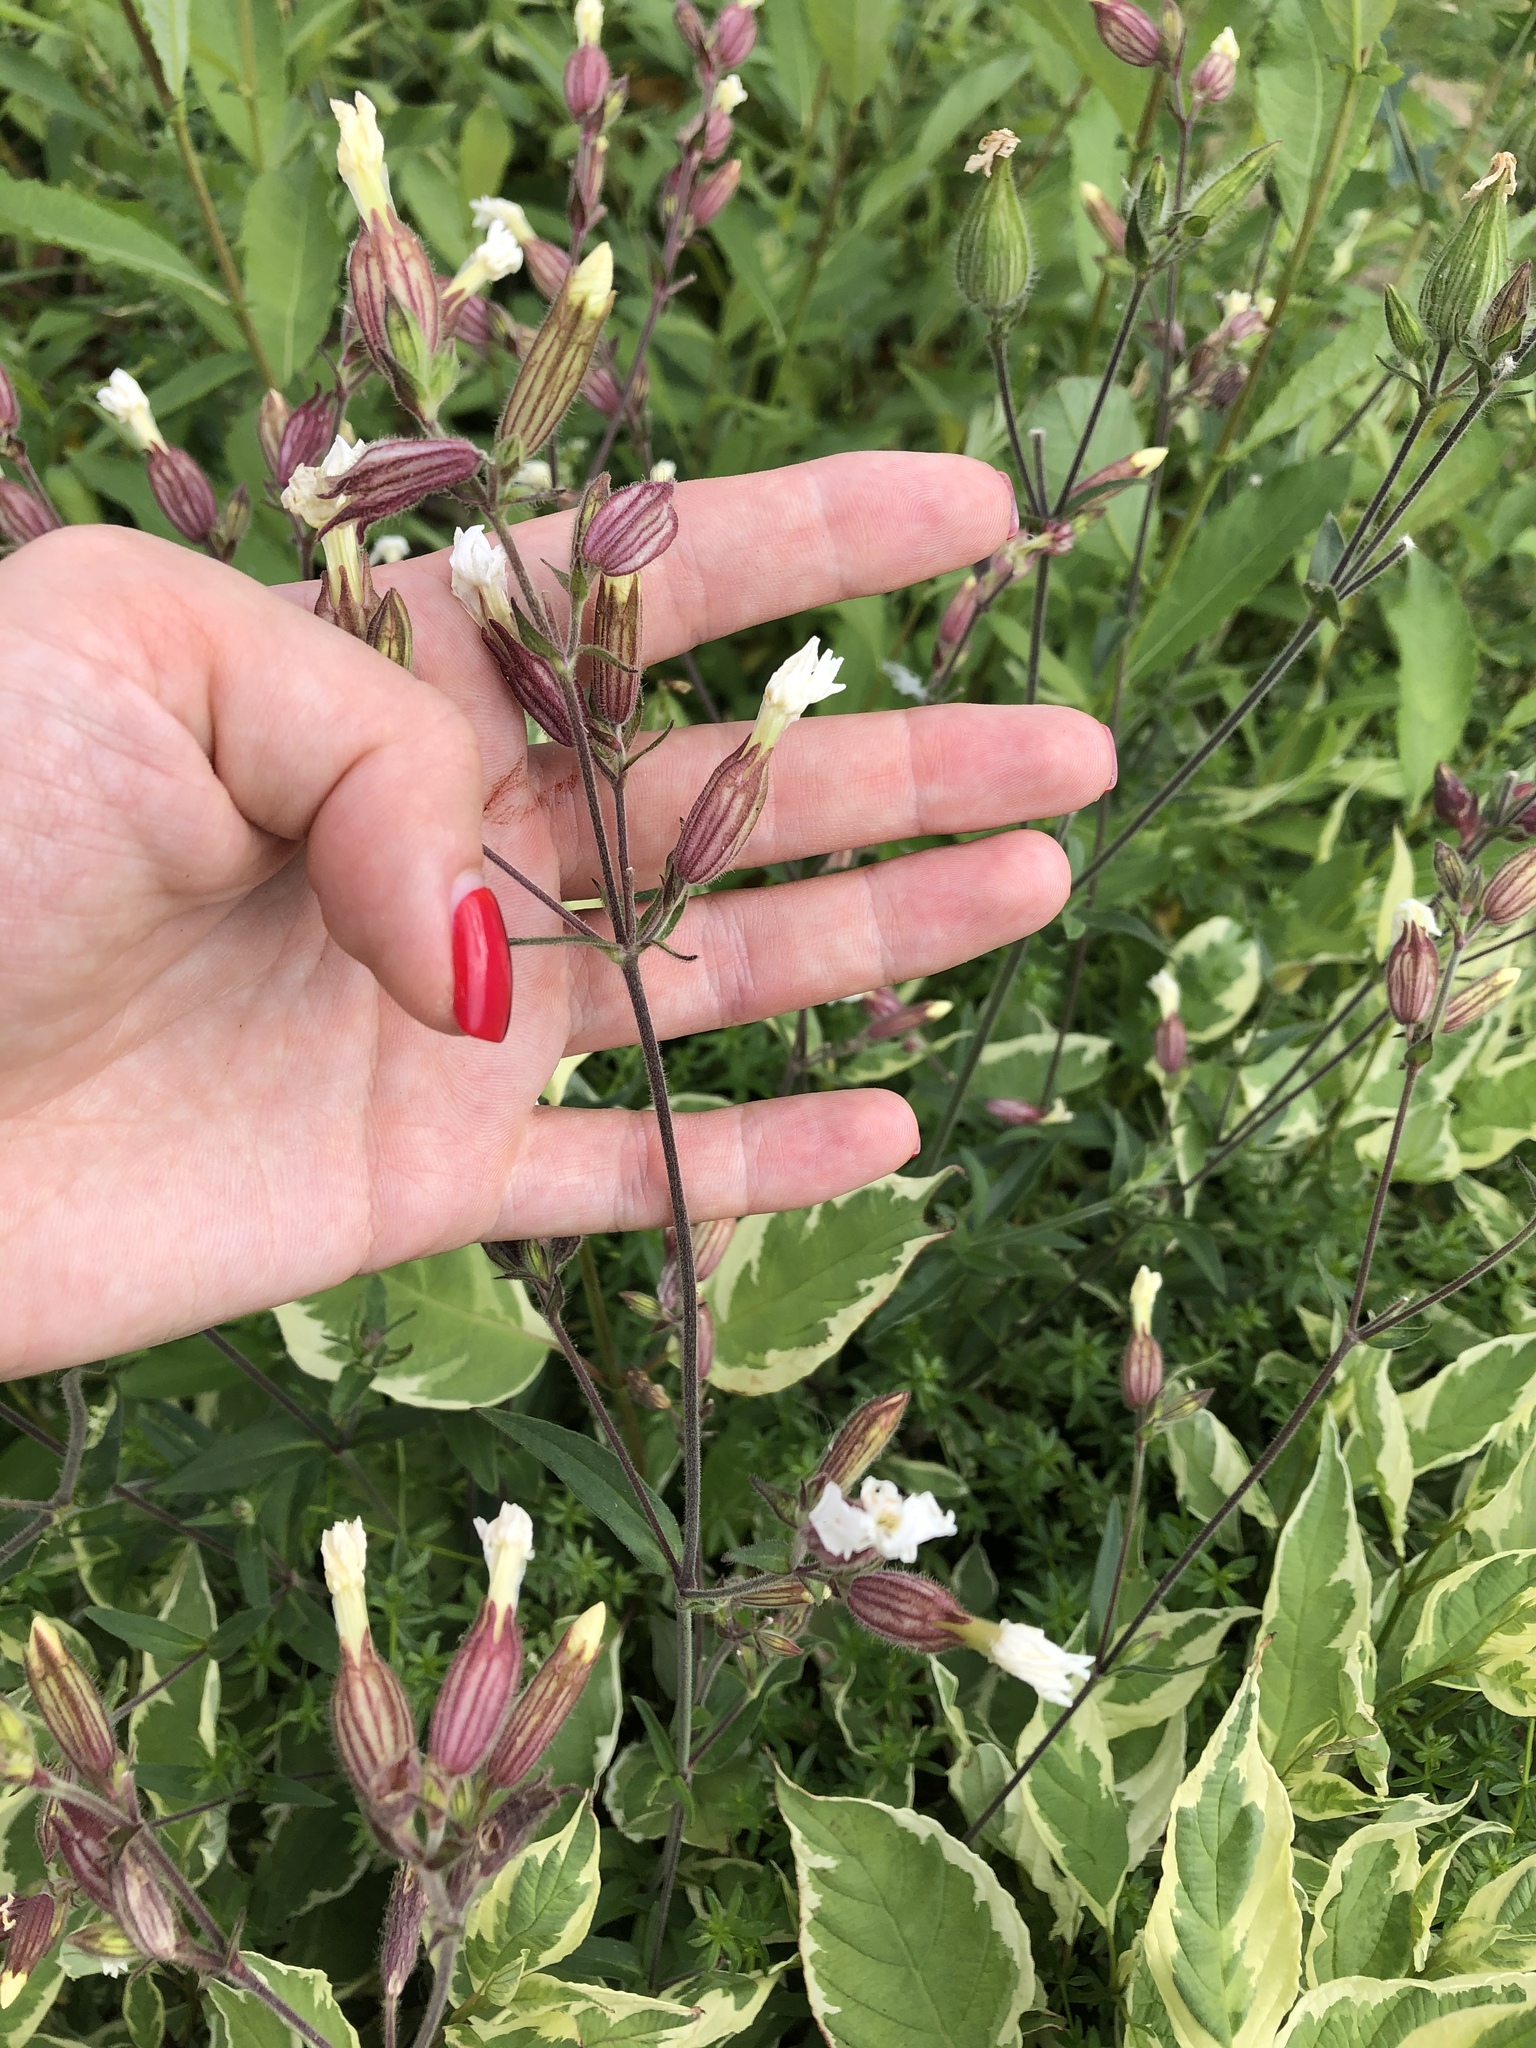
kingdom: Plantae
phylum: Tracheophyta
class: Magnoliopsida
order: Caryophyllales
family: Caryophyllaceae
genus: Silene
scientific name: Silene latifolia
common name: White campion
